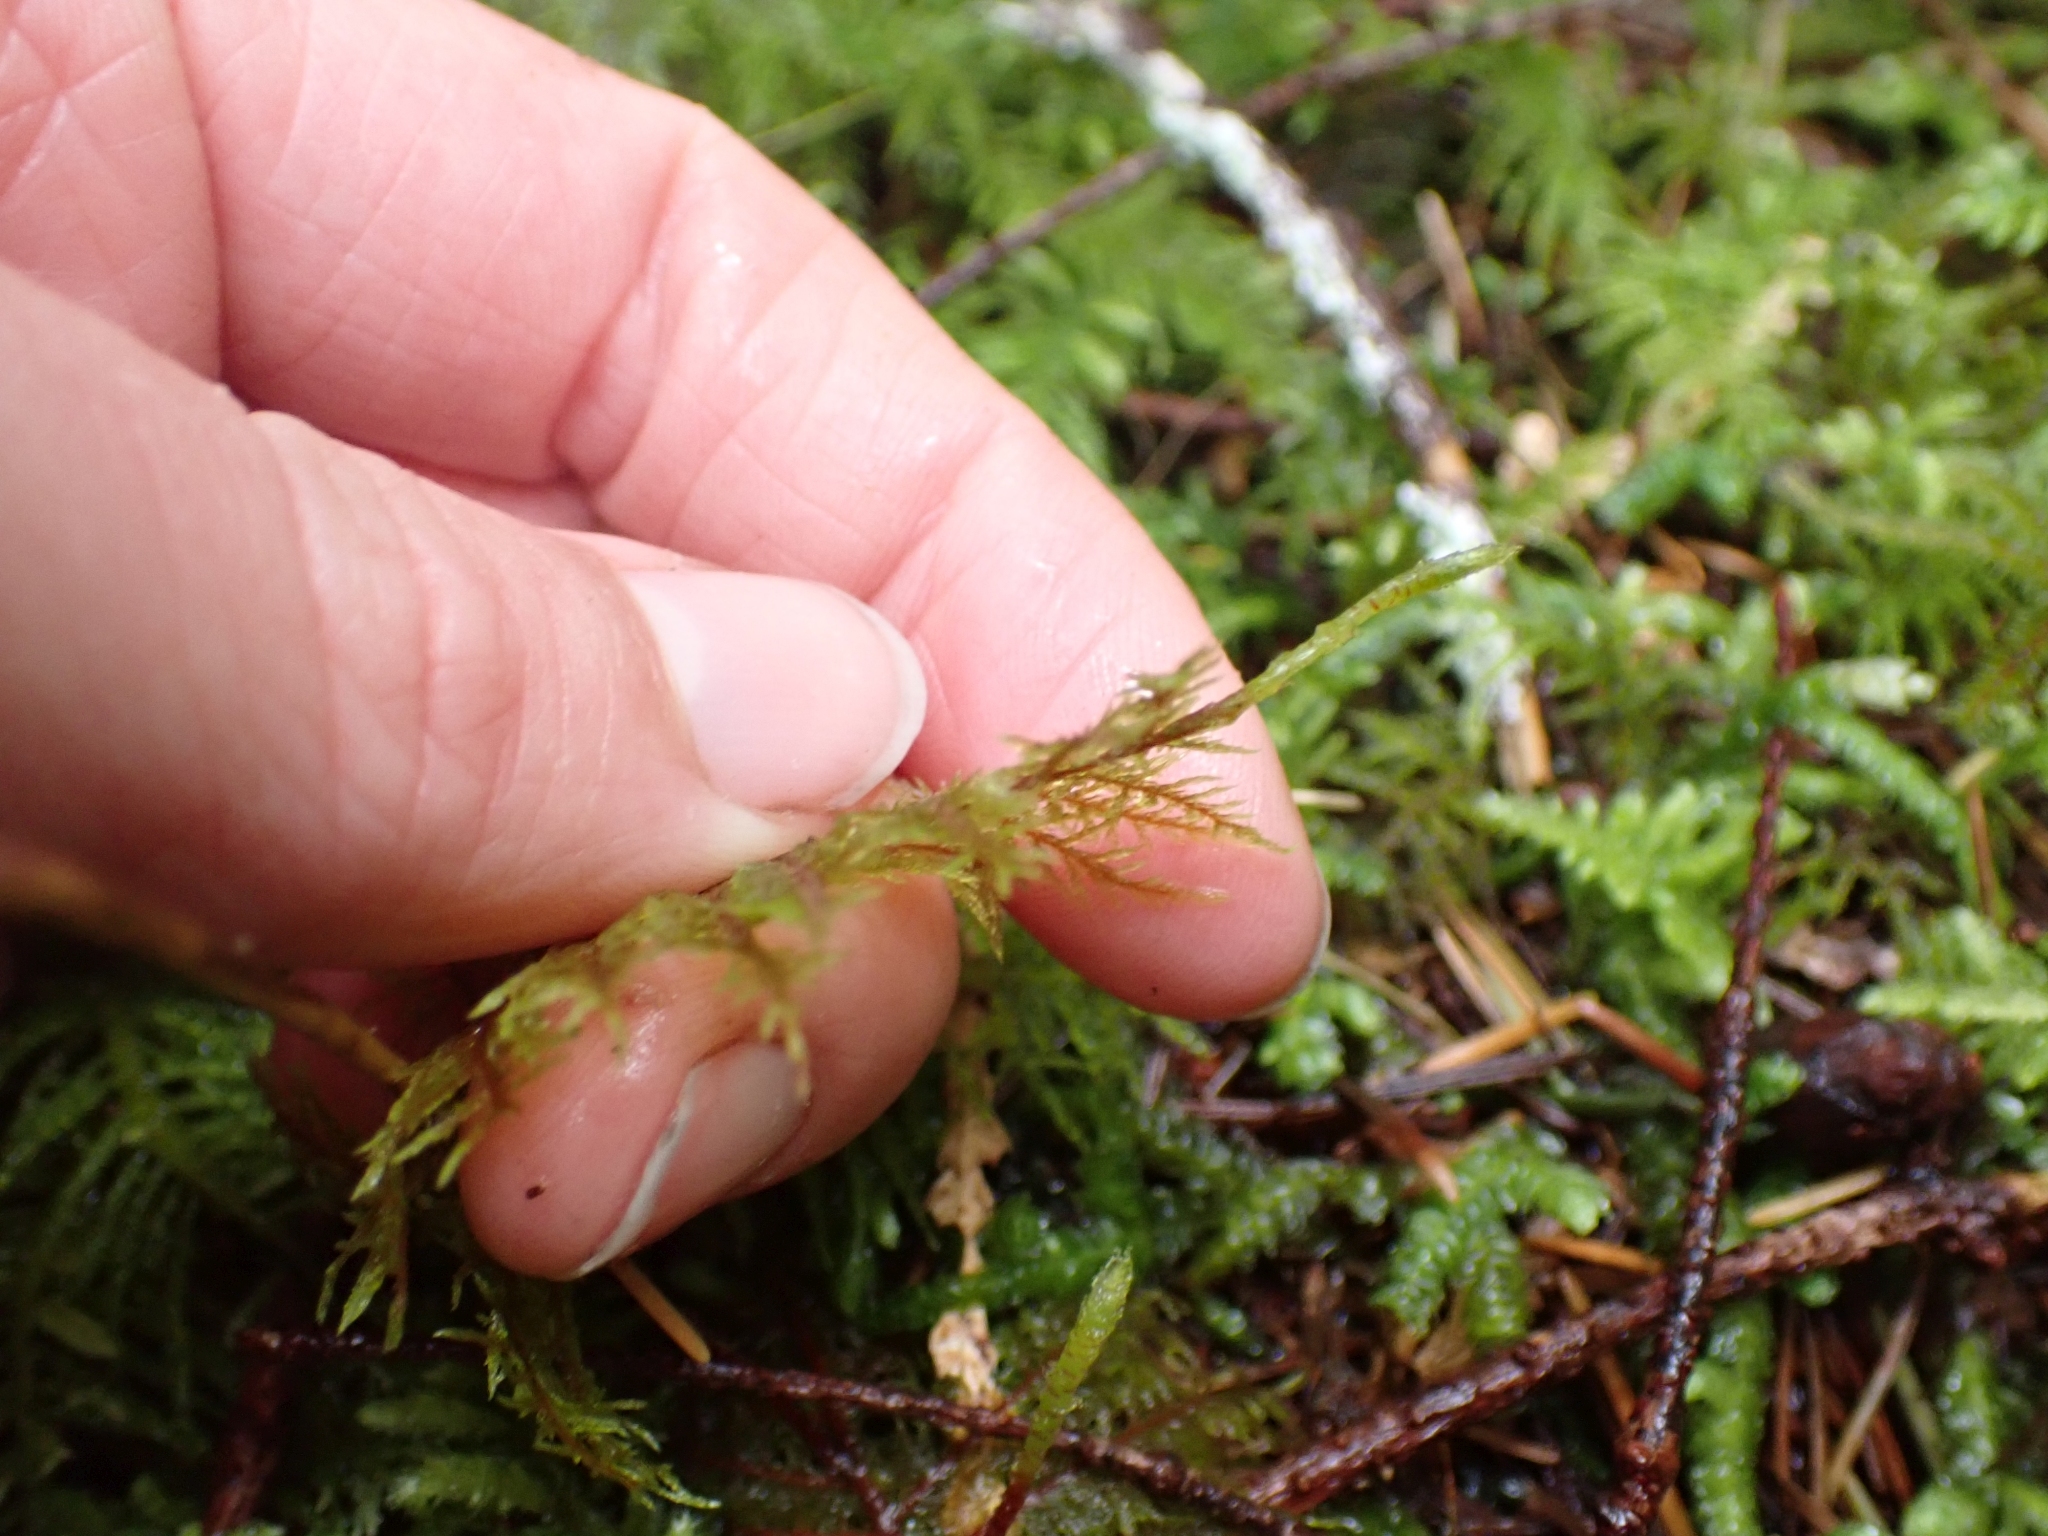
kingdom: Plantae
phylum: Bryophyta
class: Bryopsida
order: Hypnales
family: Hylocomiaceae
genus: Hylocomium
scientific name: Hylocomium splendens
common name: Stairstep moss
